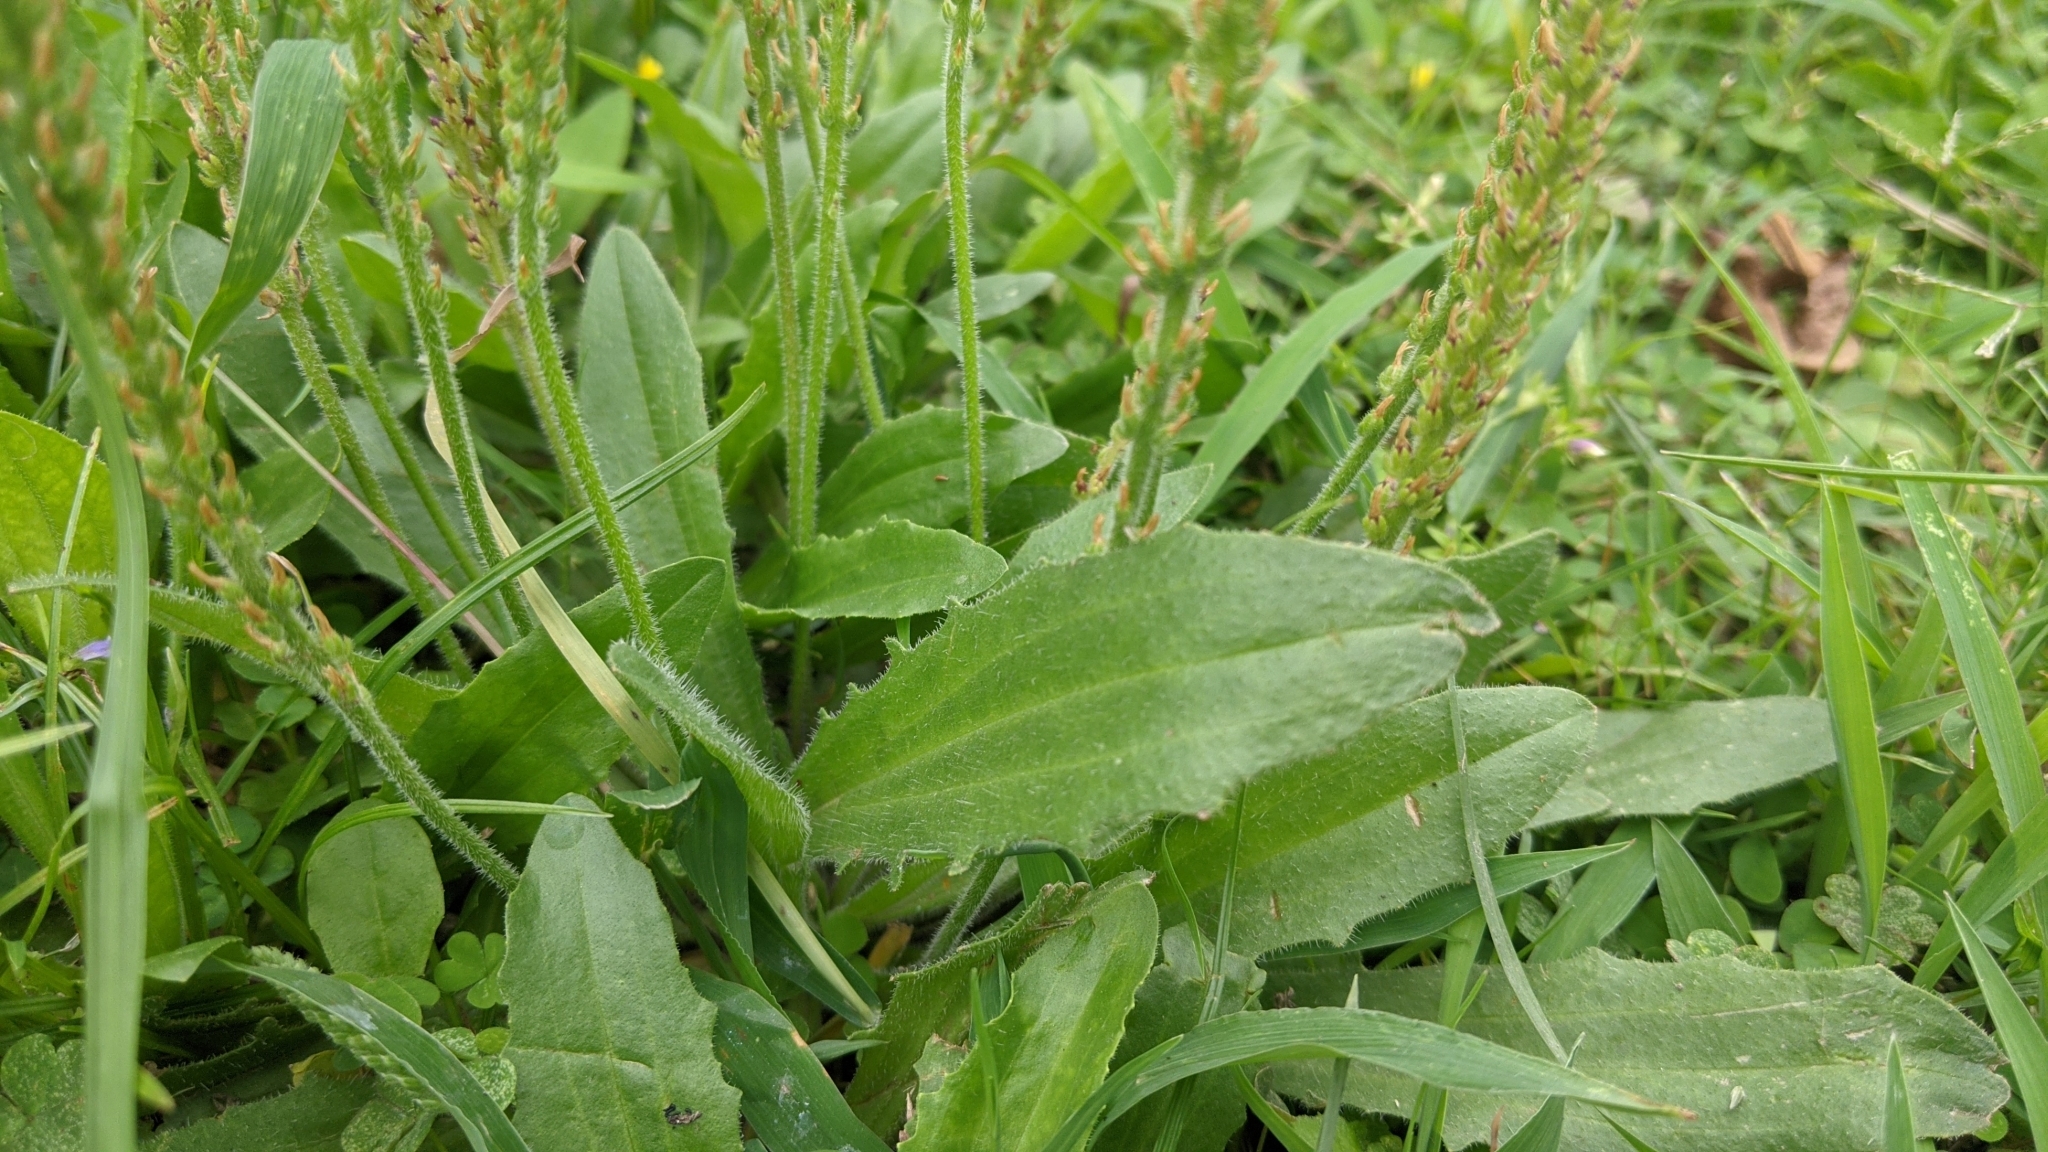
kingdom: Plantae
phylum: Tracheophyta
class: Magnoliopsida
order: Lamiales
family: Plantaginaceae
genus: Plantago
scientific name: Plantago virginica
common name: Hoary plantain
